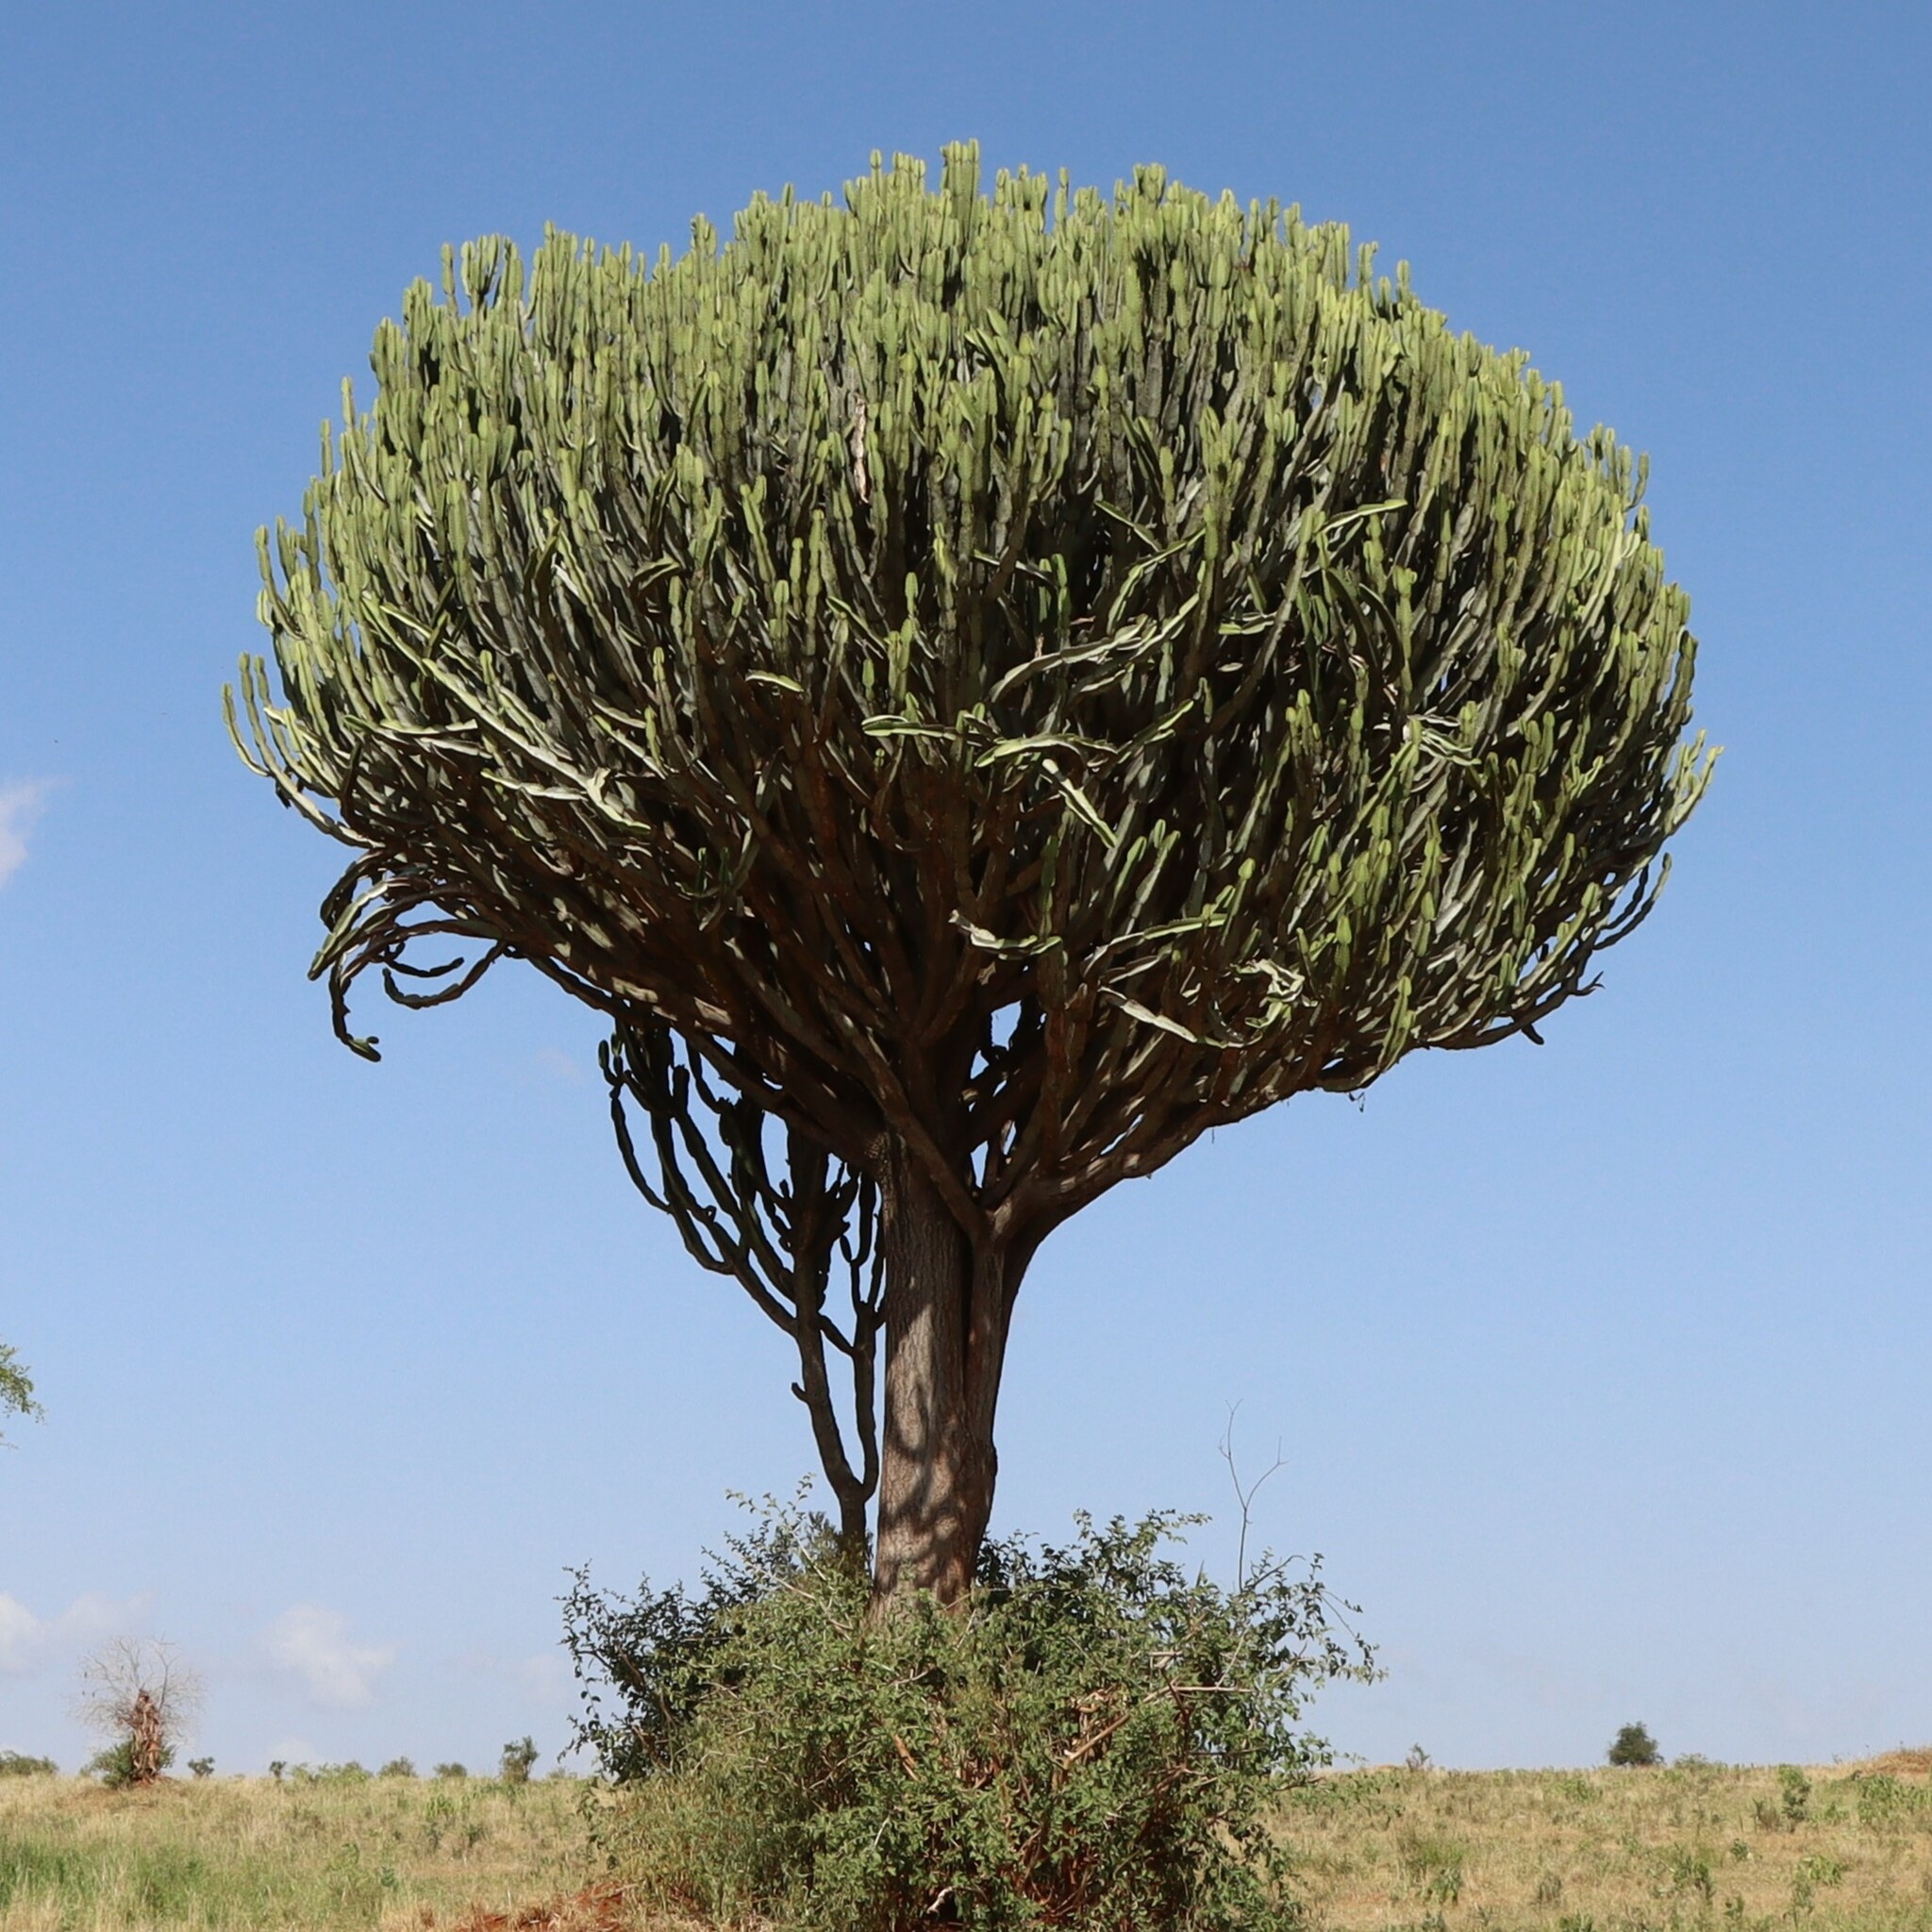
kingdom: Plantae
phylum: Tracheophyta
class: Magnoliopsida
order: Malpighiales
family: Euphorbiaceae
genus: Euphorbia
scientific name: Euphorbia ingens
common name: Cactus spurge
